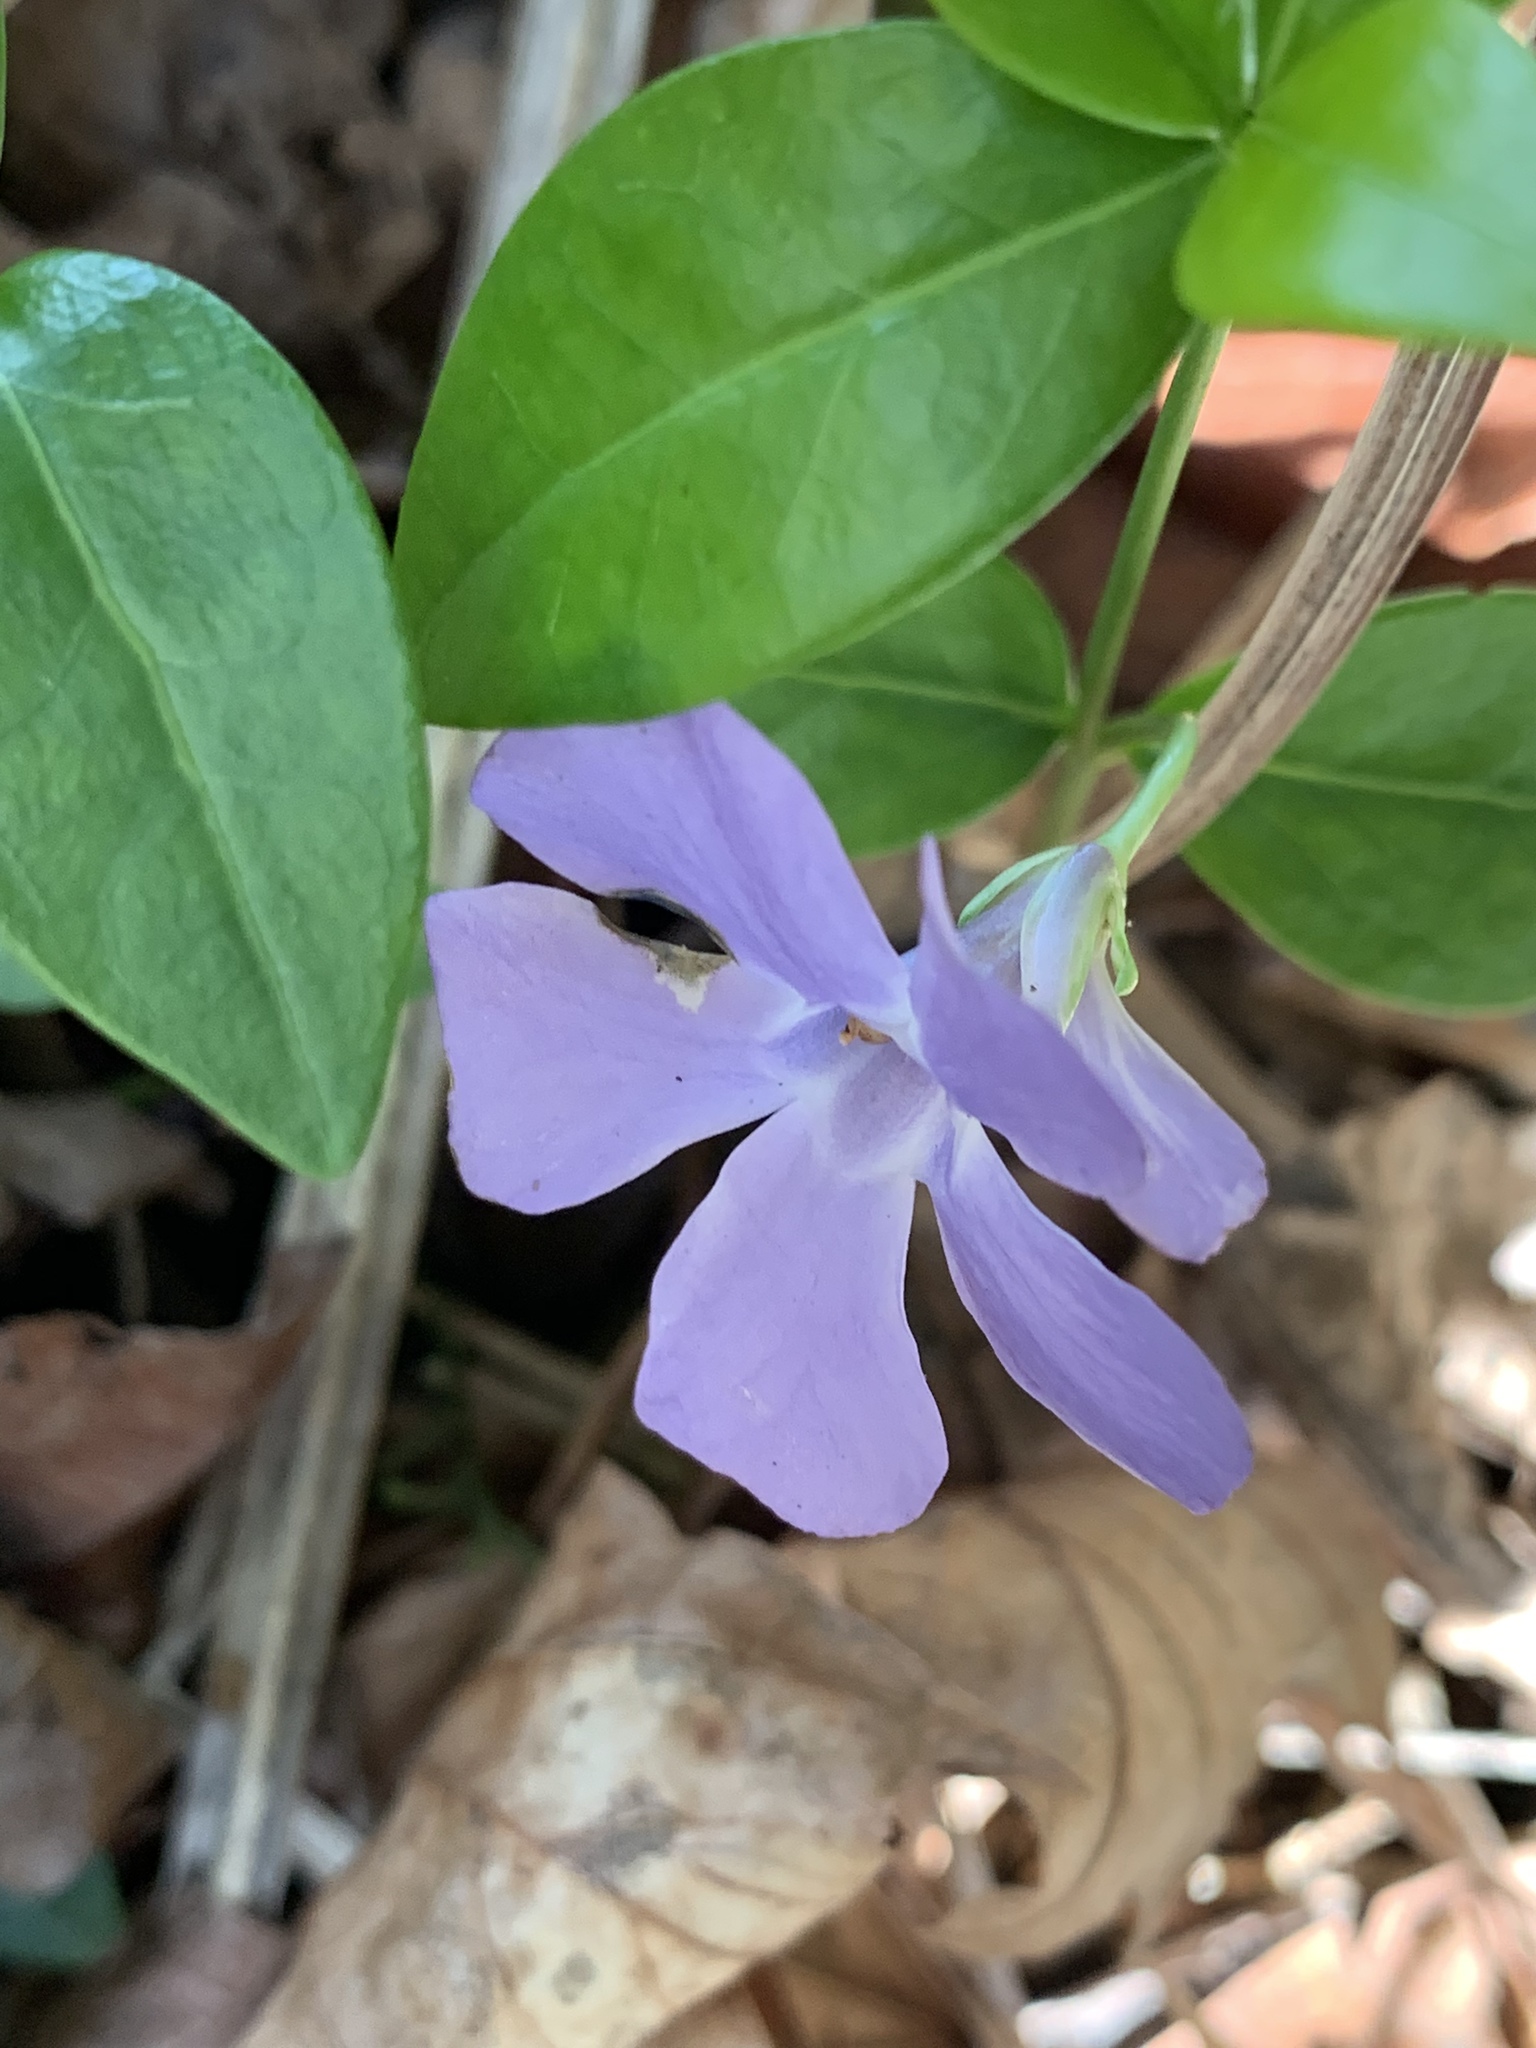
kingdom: Plantae
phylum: Tracheophyta
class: Magnoliopsida
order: Gentianales
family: Apocynaceae
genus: Vinca
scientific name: Vinca minor
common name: Lesser periwinkle
